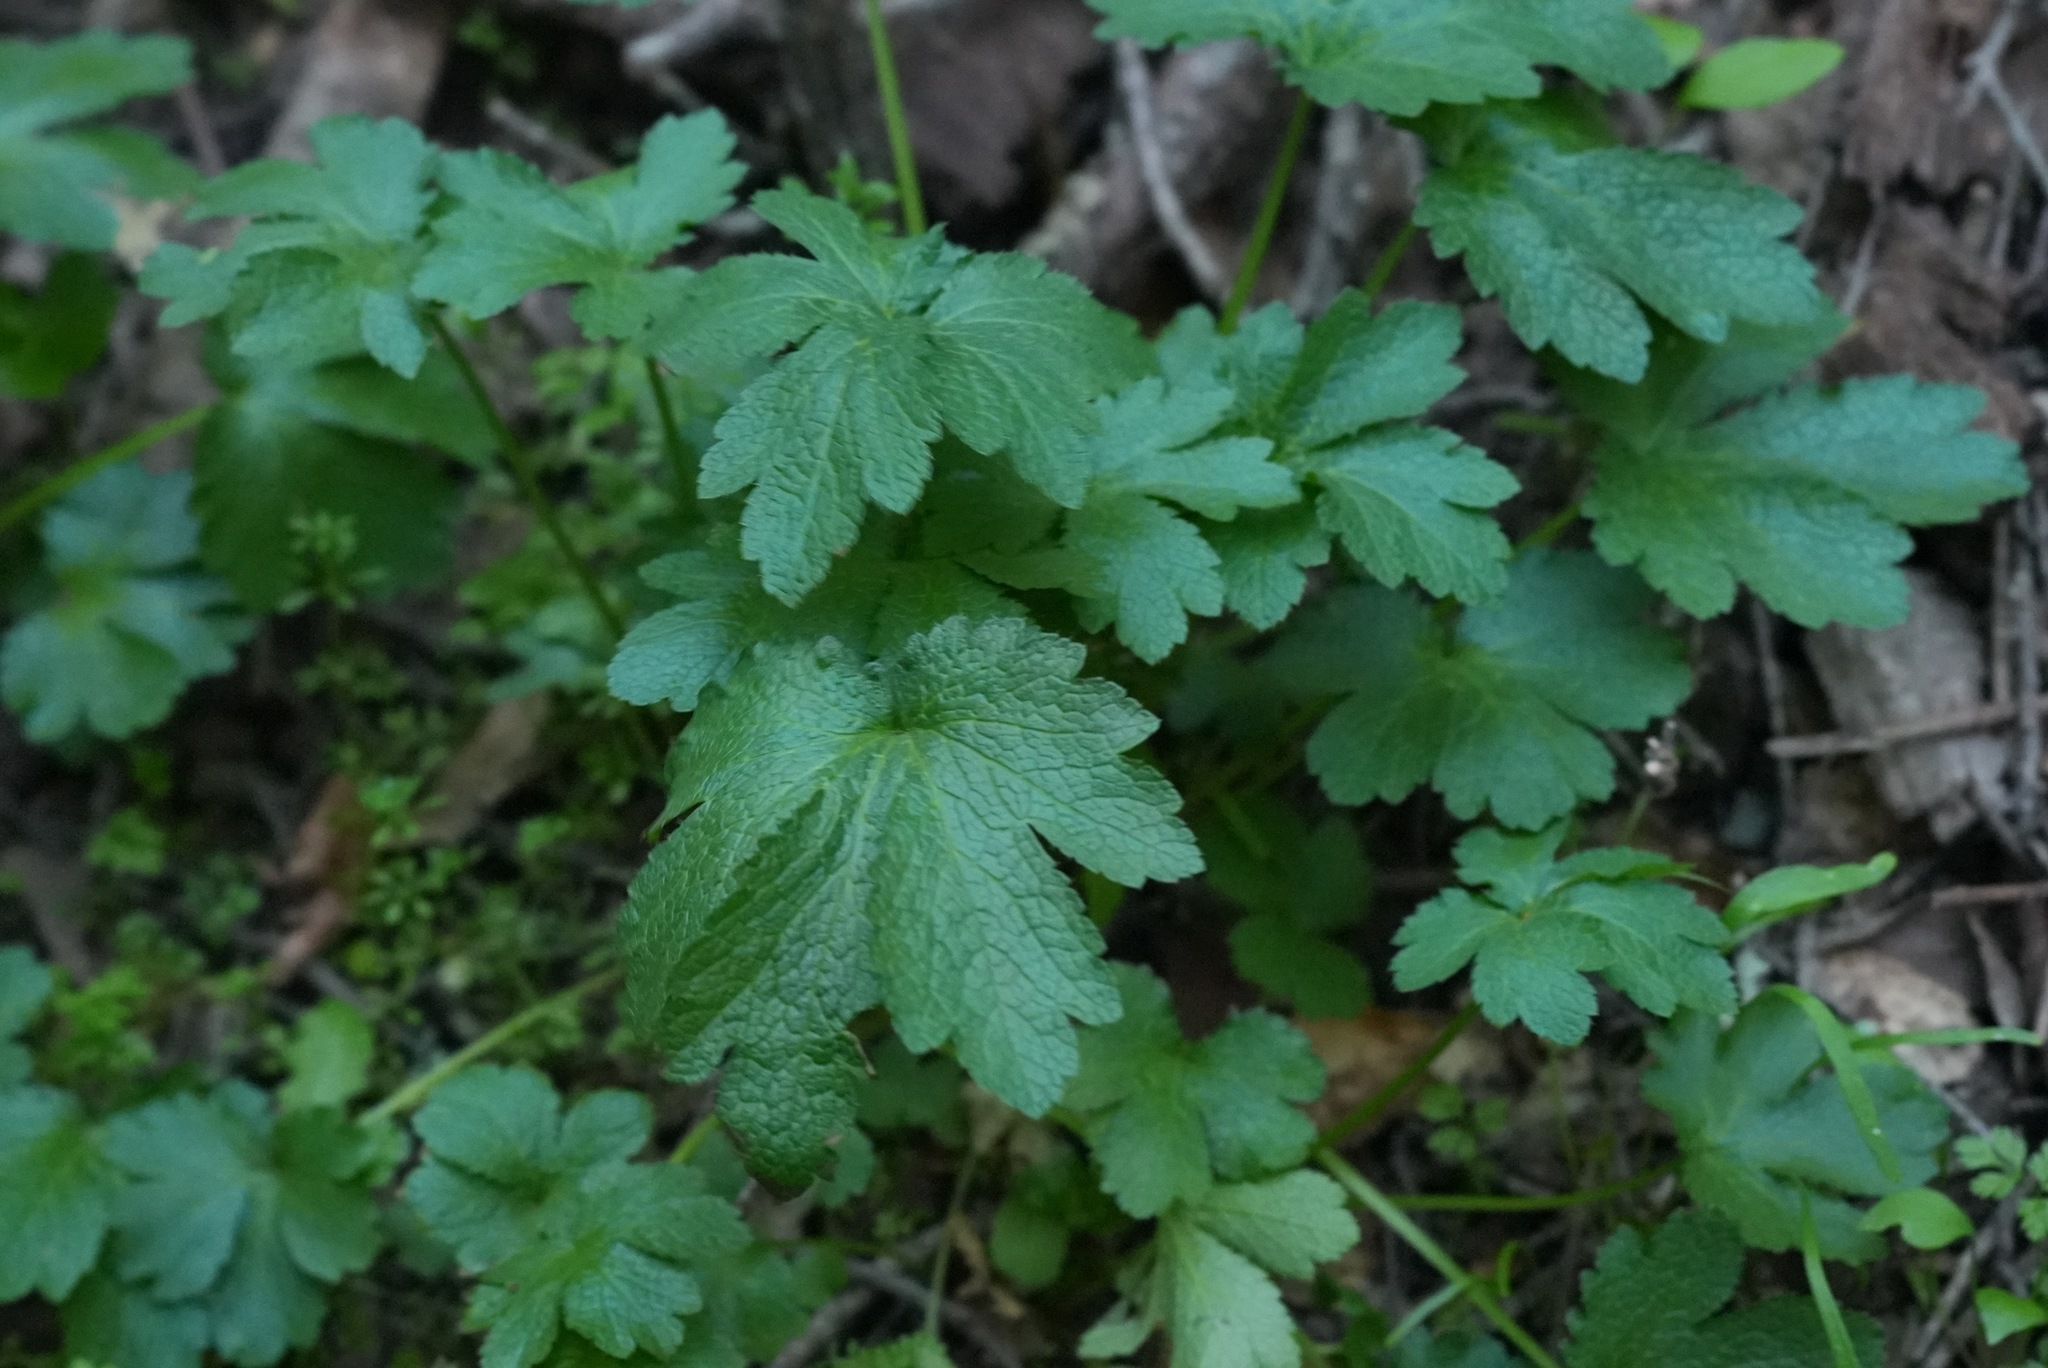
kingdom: Plantae
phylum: Tracheophyta
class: Magnoliopsida
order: Apiales
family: Apiaceae
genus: Sanicula
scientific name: Sanicula crassicaulis
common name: Western snakeroot
